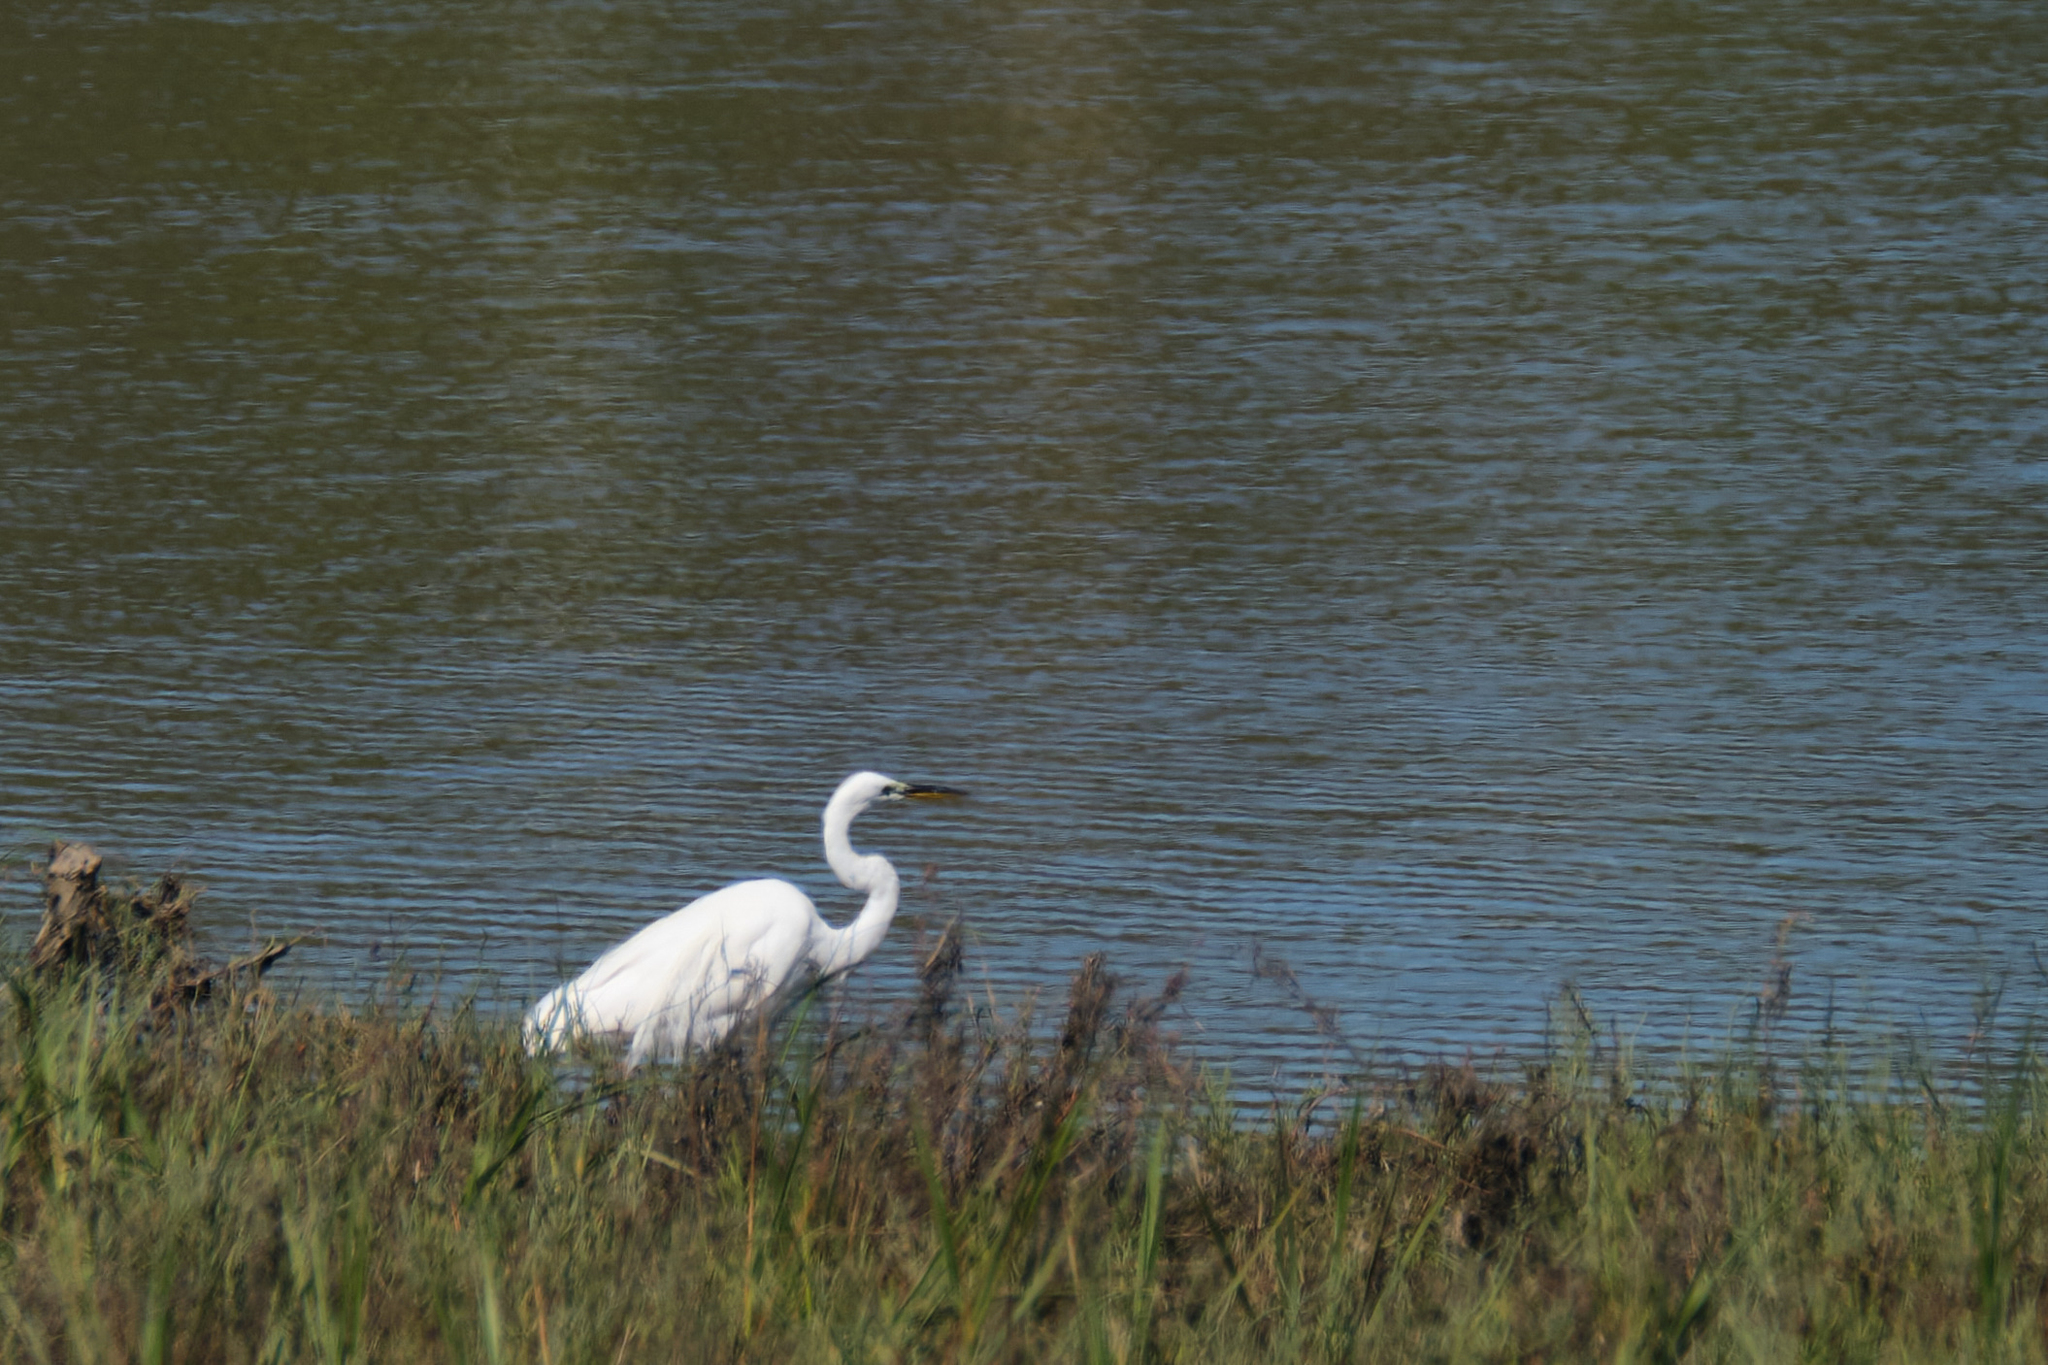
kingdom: Animalia
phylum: Chordata
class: Aves
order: Pelecaniformes
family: Ardeidae
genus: Ardea
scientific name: Ardea alba
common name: Great egret
